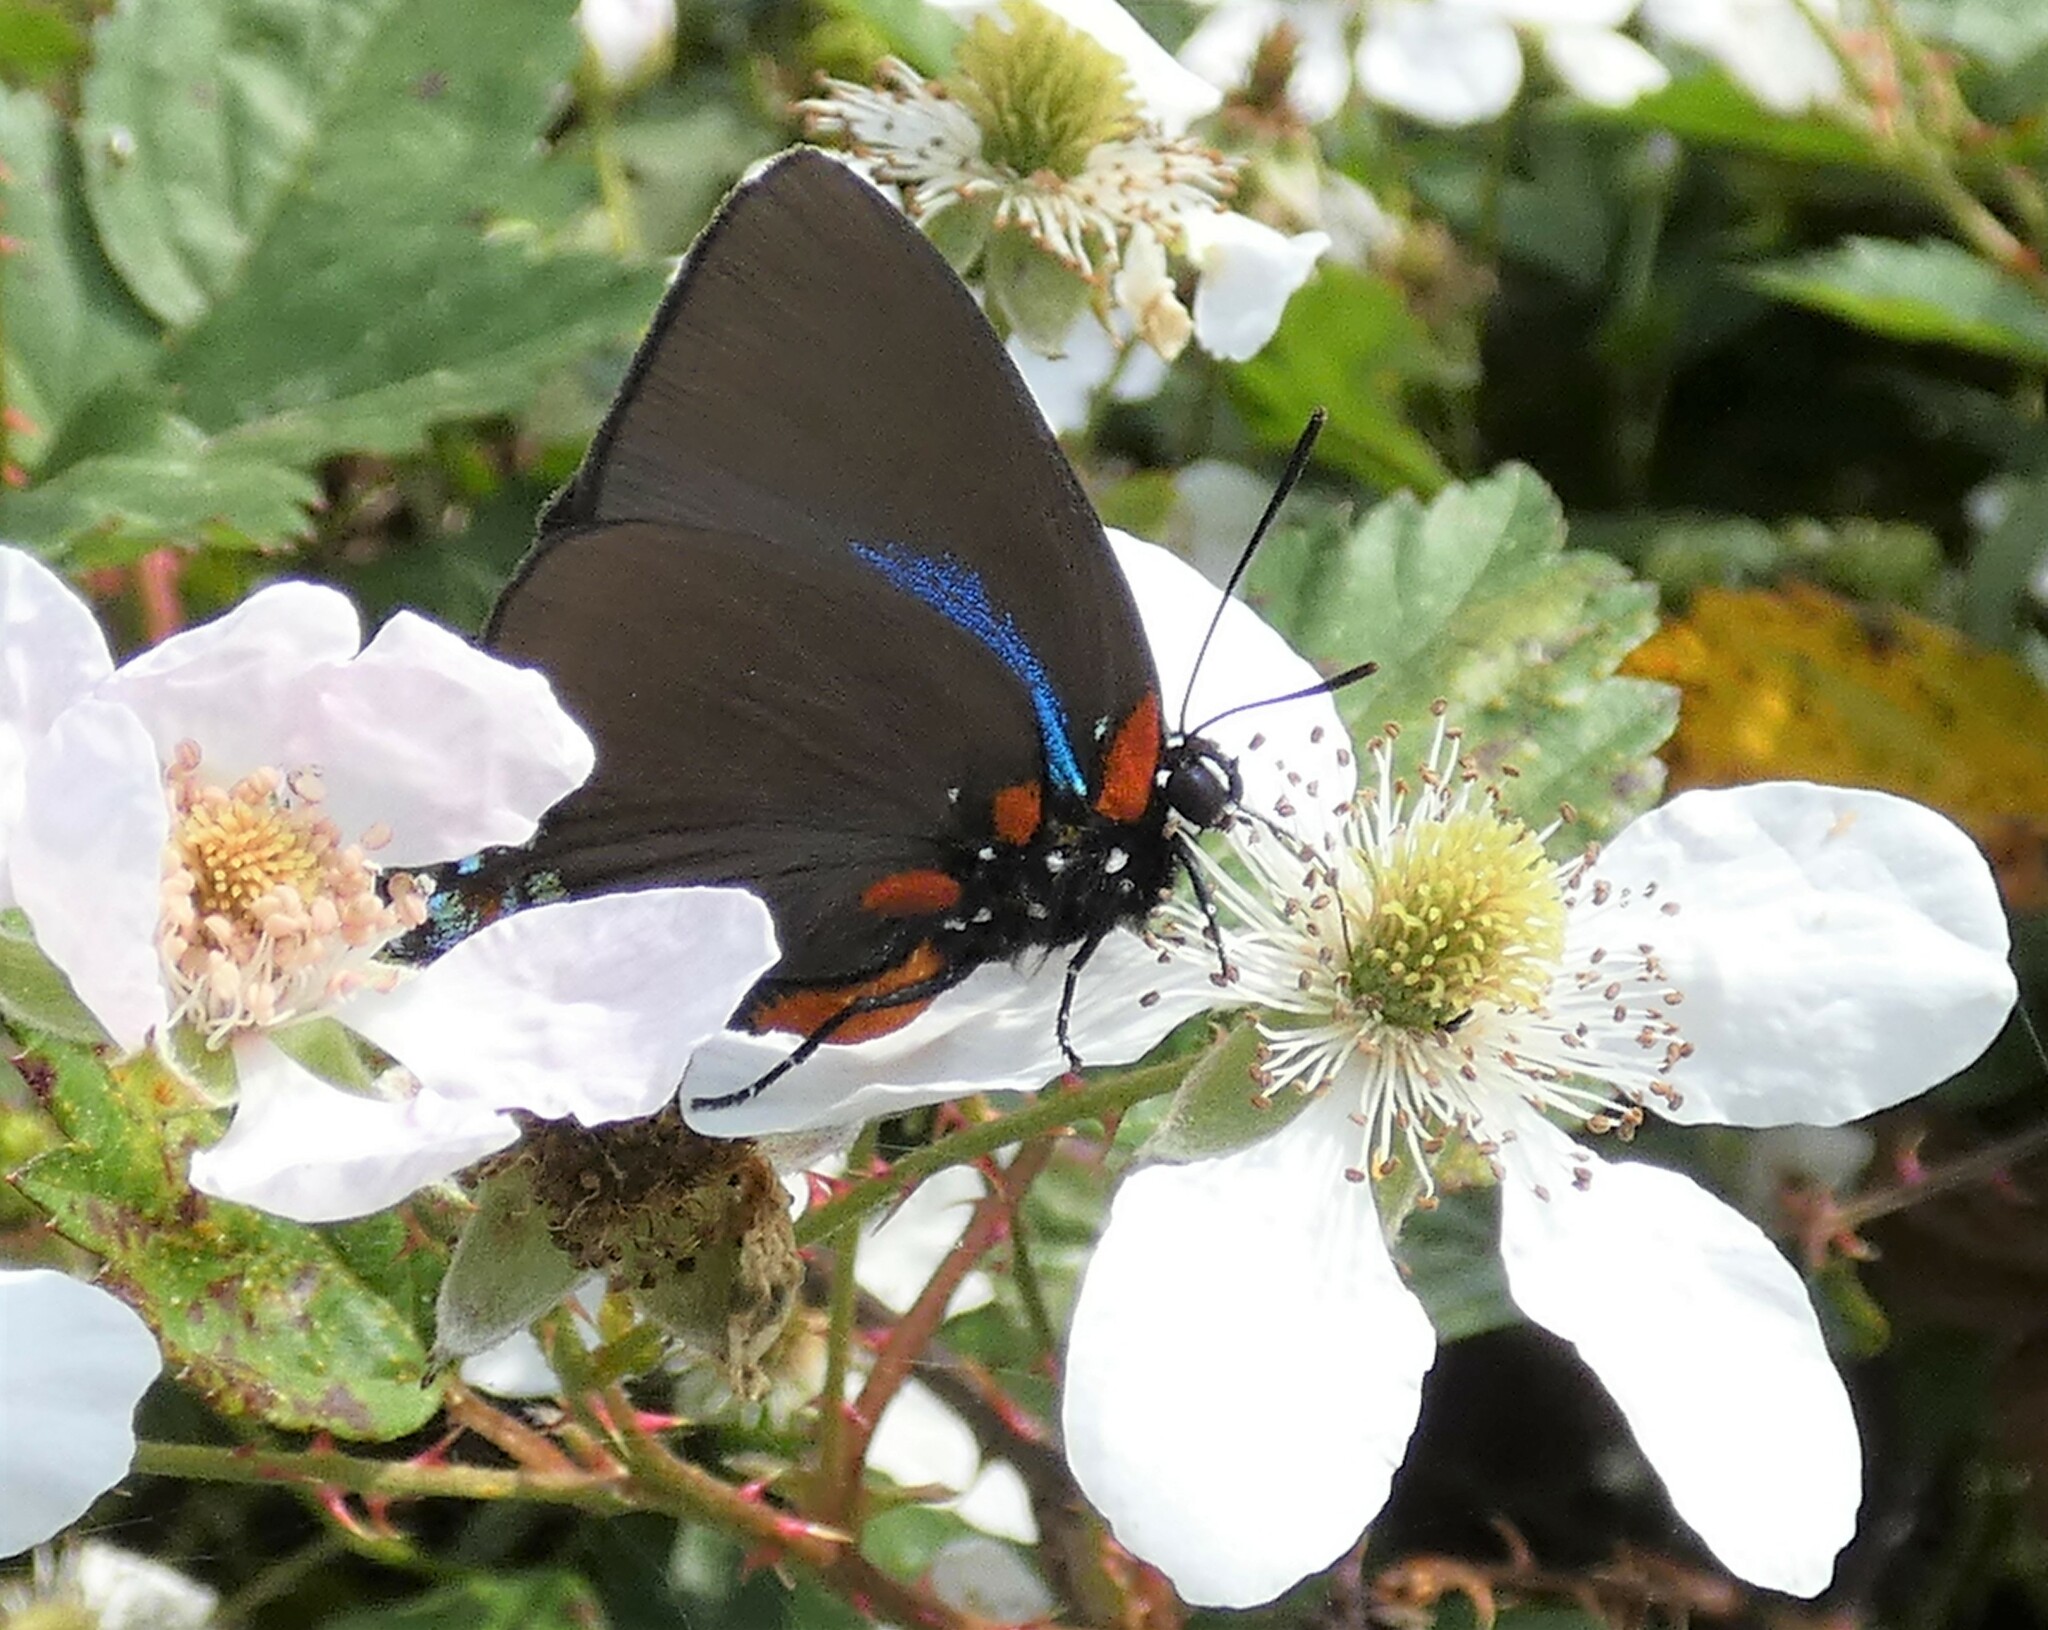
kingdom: Animalia
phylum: Arthropoda
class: Insecta
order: Lepidoptera
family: Lycaenidae
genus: Atlides
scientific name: Atlides halesus
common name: Great purple hairstreak
